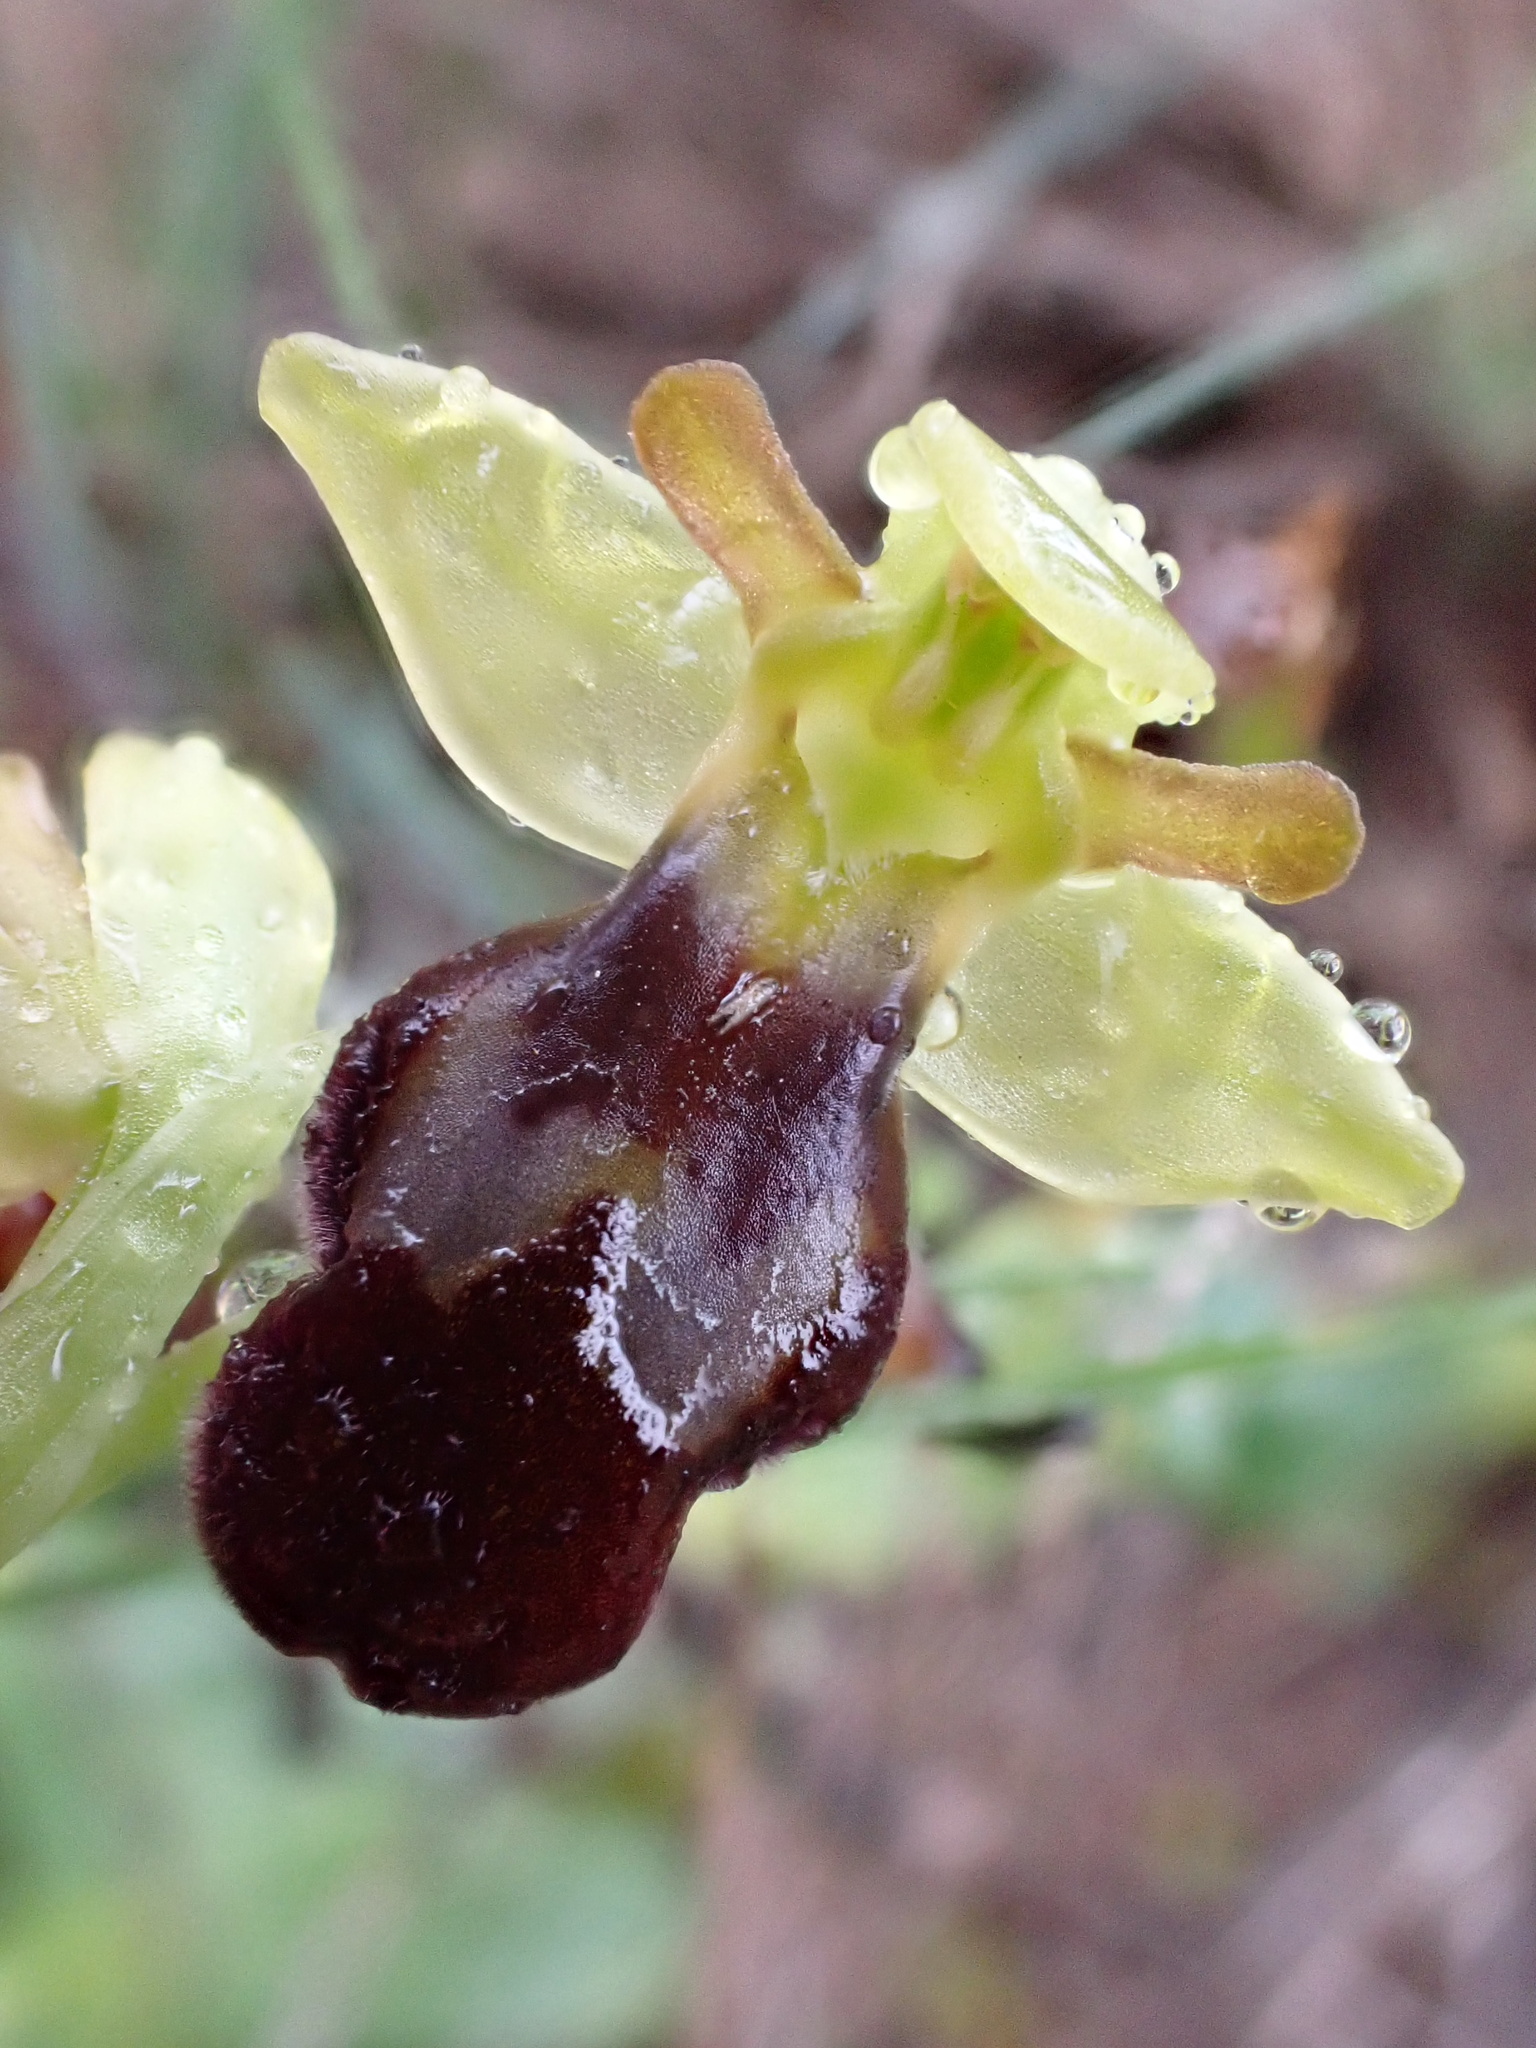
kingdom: Plantae
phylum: Tracheophyta
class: Liliopsida
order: Asparagales
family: Orchidaceae
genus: Ophrys
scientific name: Ophrys fusca
